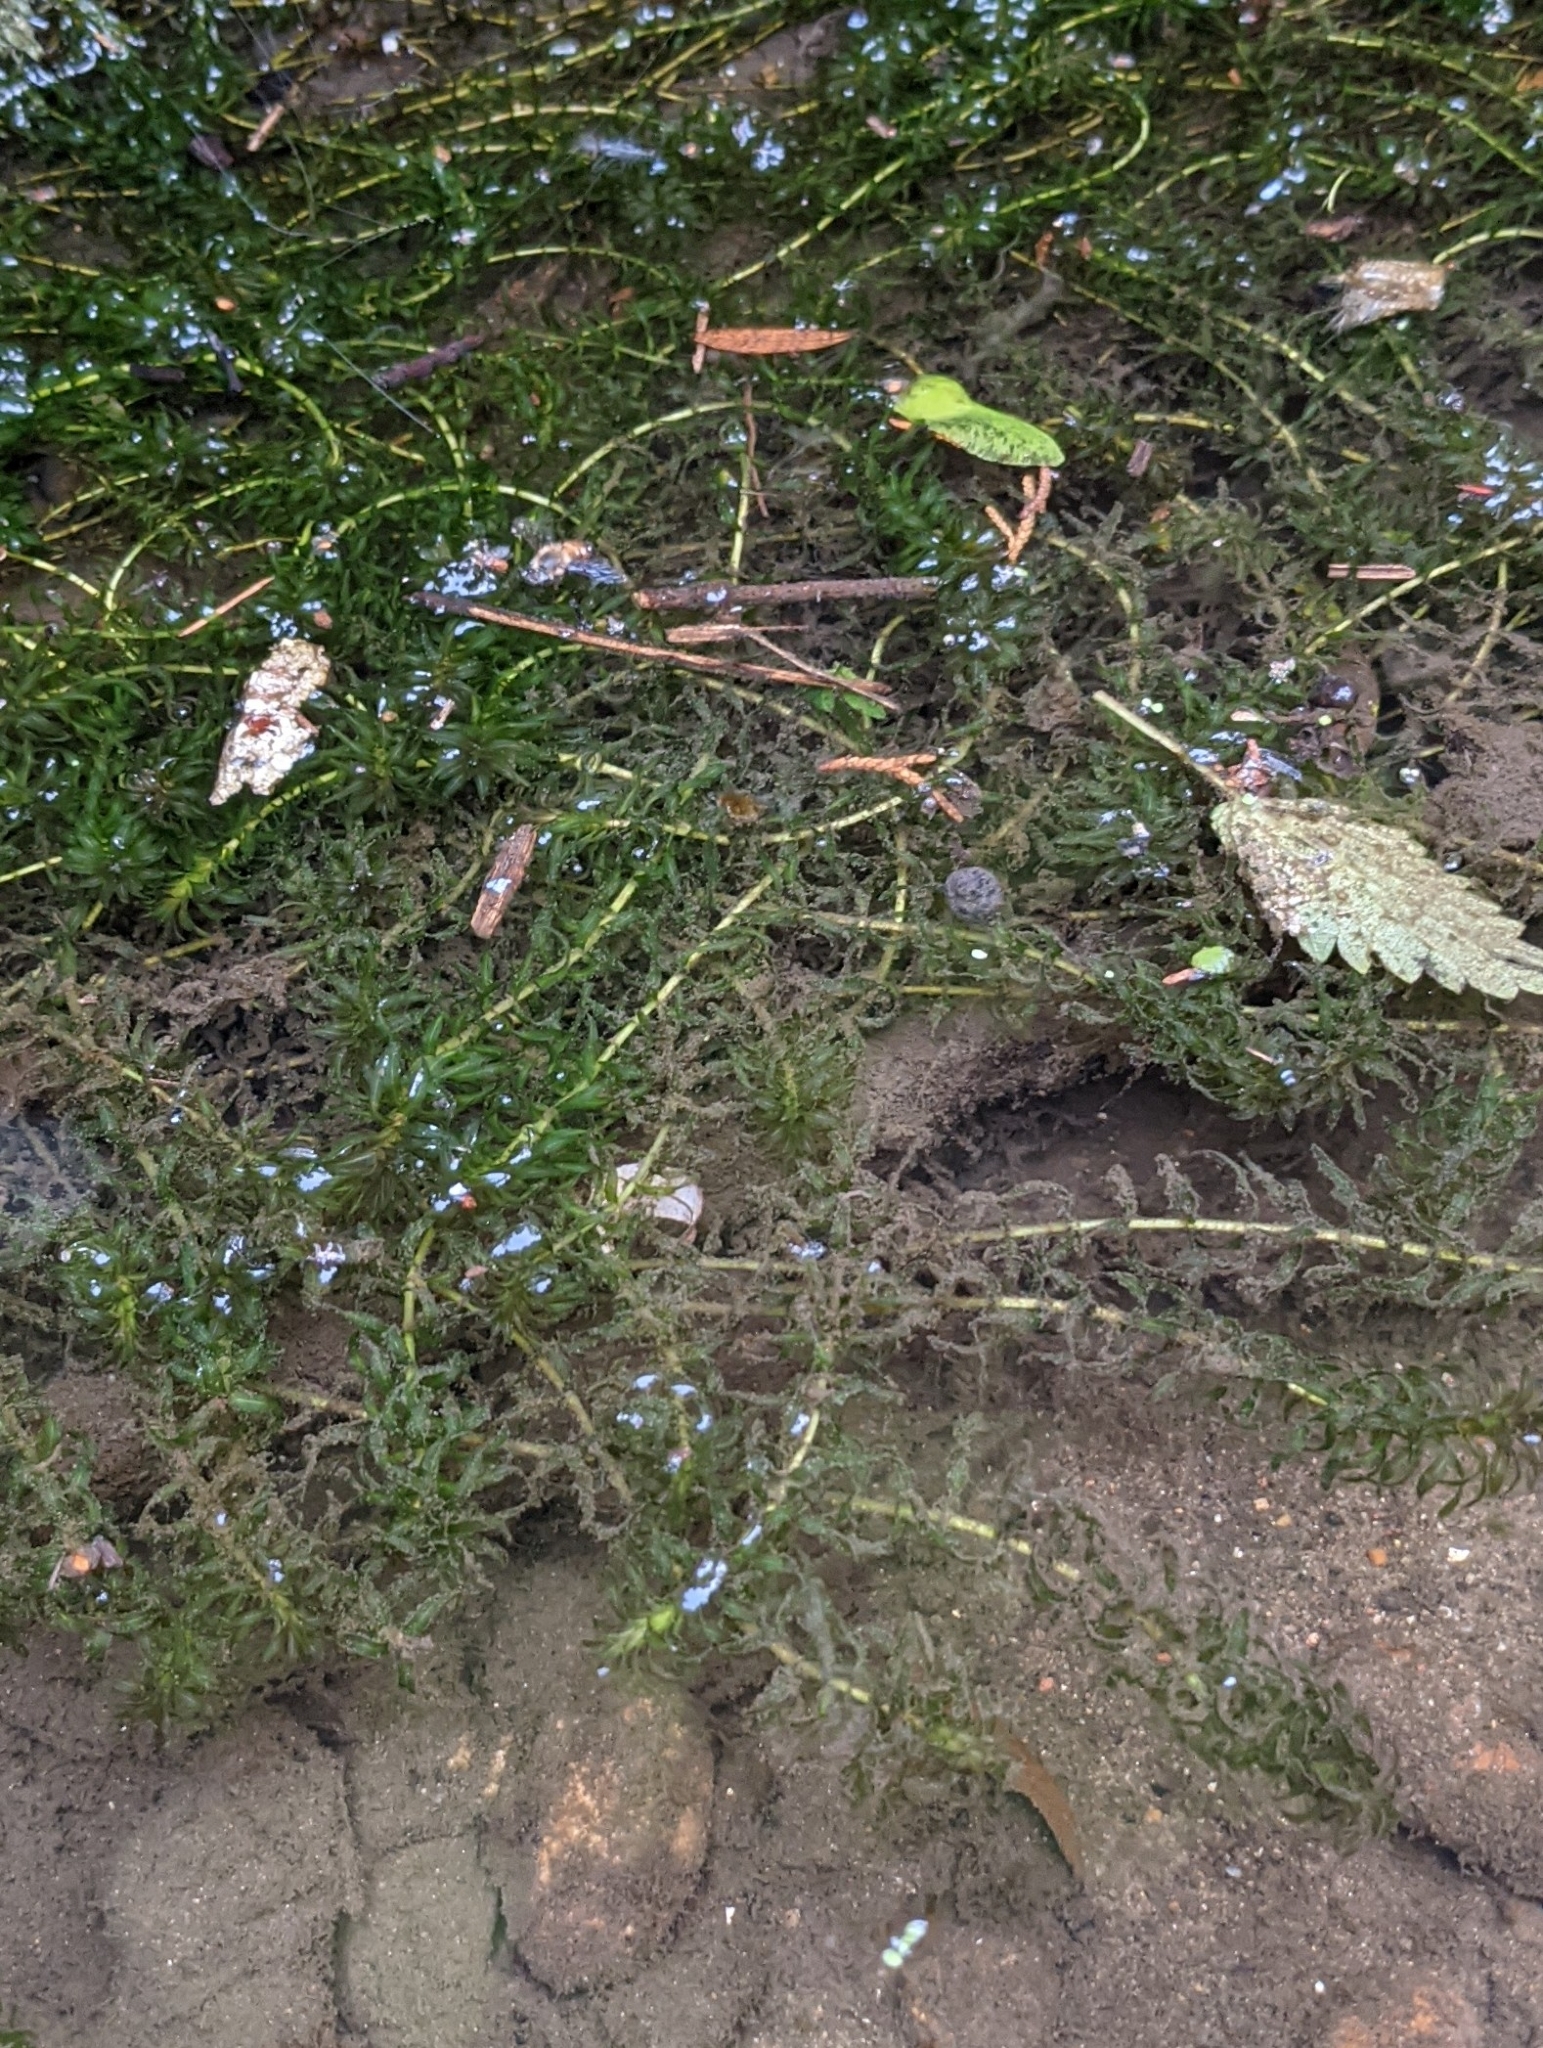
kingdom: Plantae
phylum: Tracheophyta
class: Liliopsida
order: Alismatales
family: Hydrocharitaceae
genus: Elodea
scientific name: Elodea canadensis
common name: Canadian waterweed
